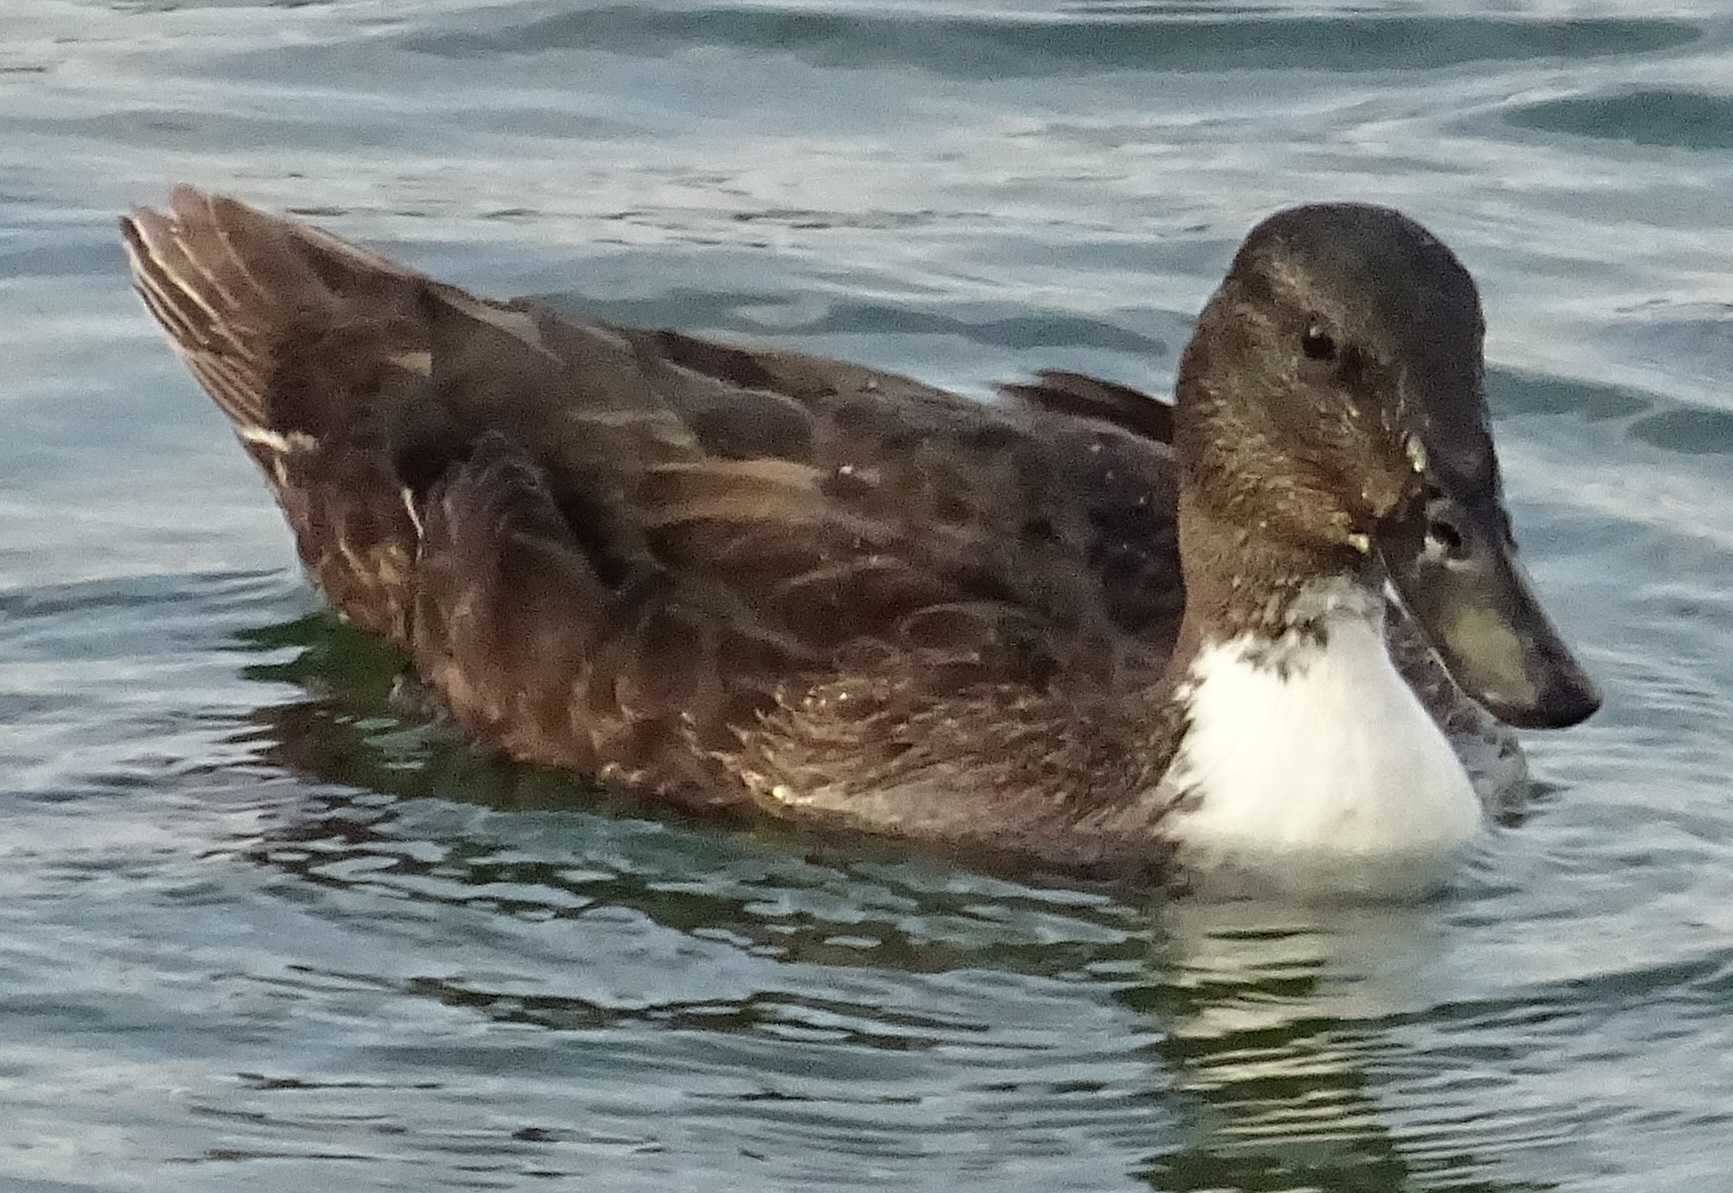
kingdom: Animalia
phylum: Chordata
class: Aves
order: Anseriformes
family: Anatidae
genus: Anas
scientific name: Anas platyrhynchos
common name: Mallard
